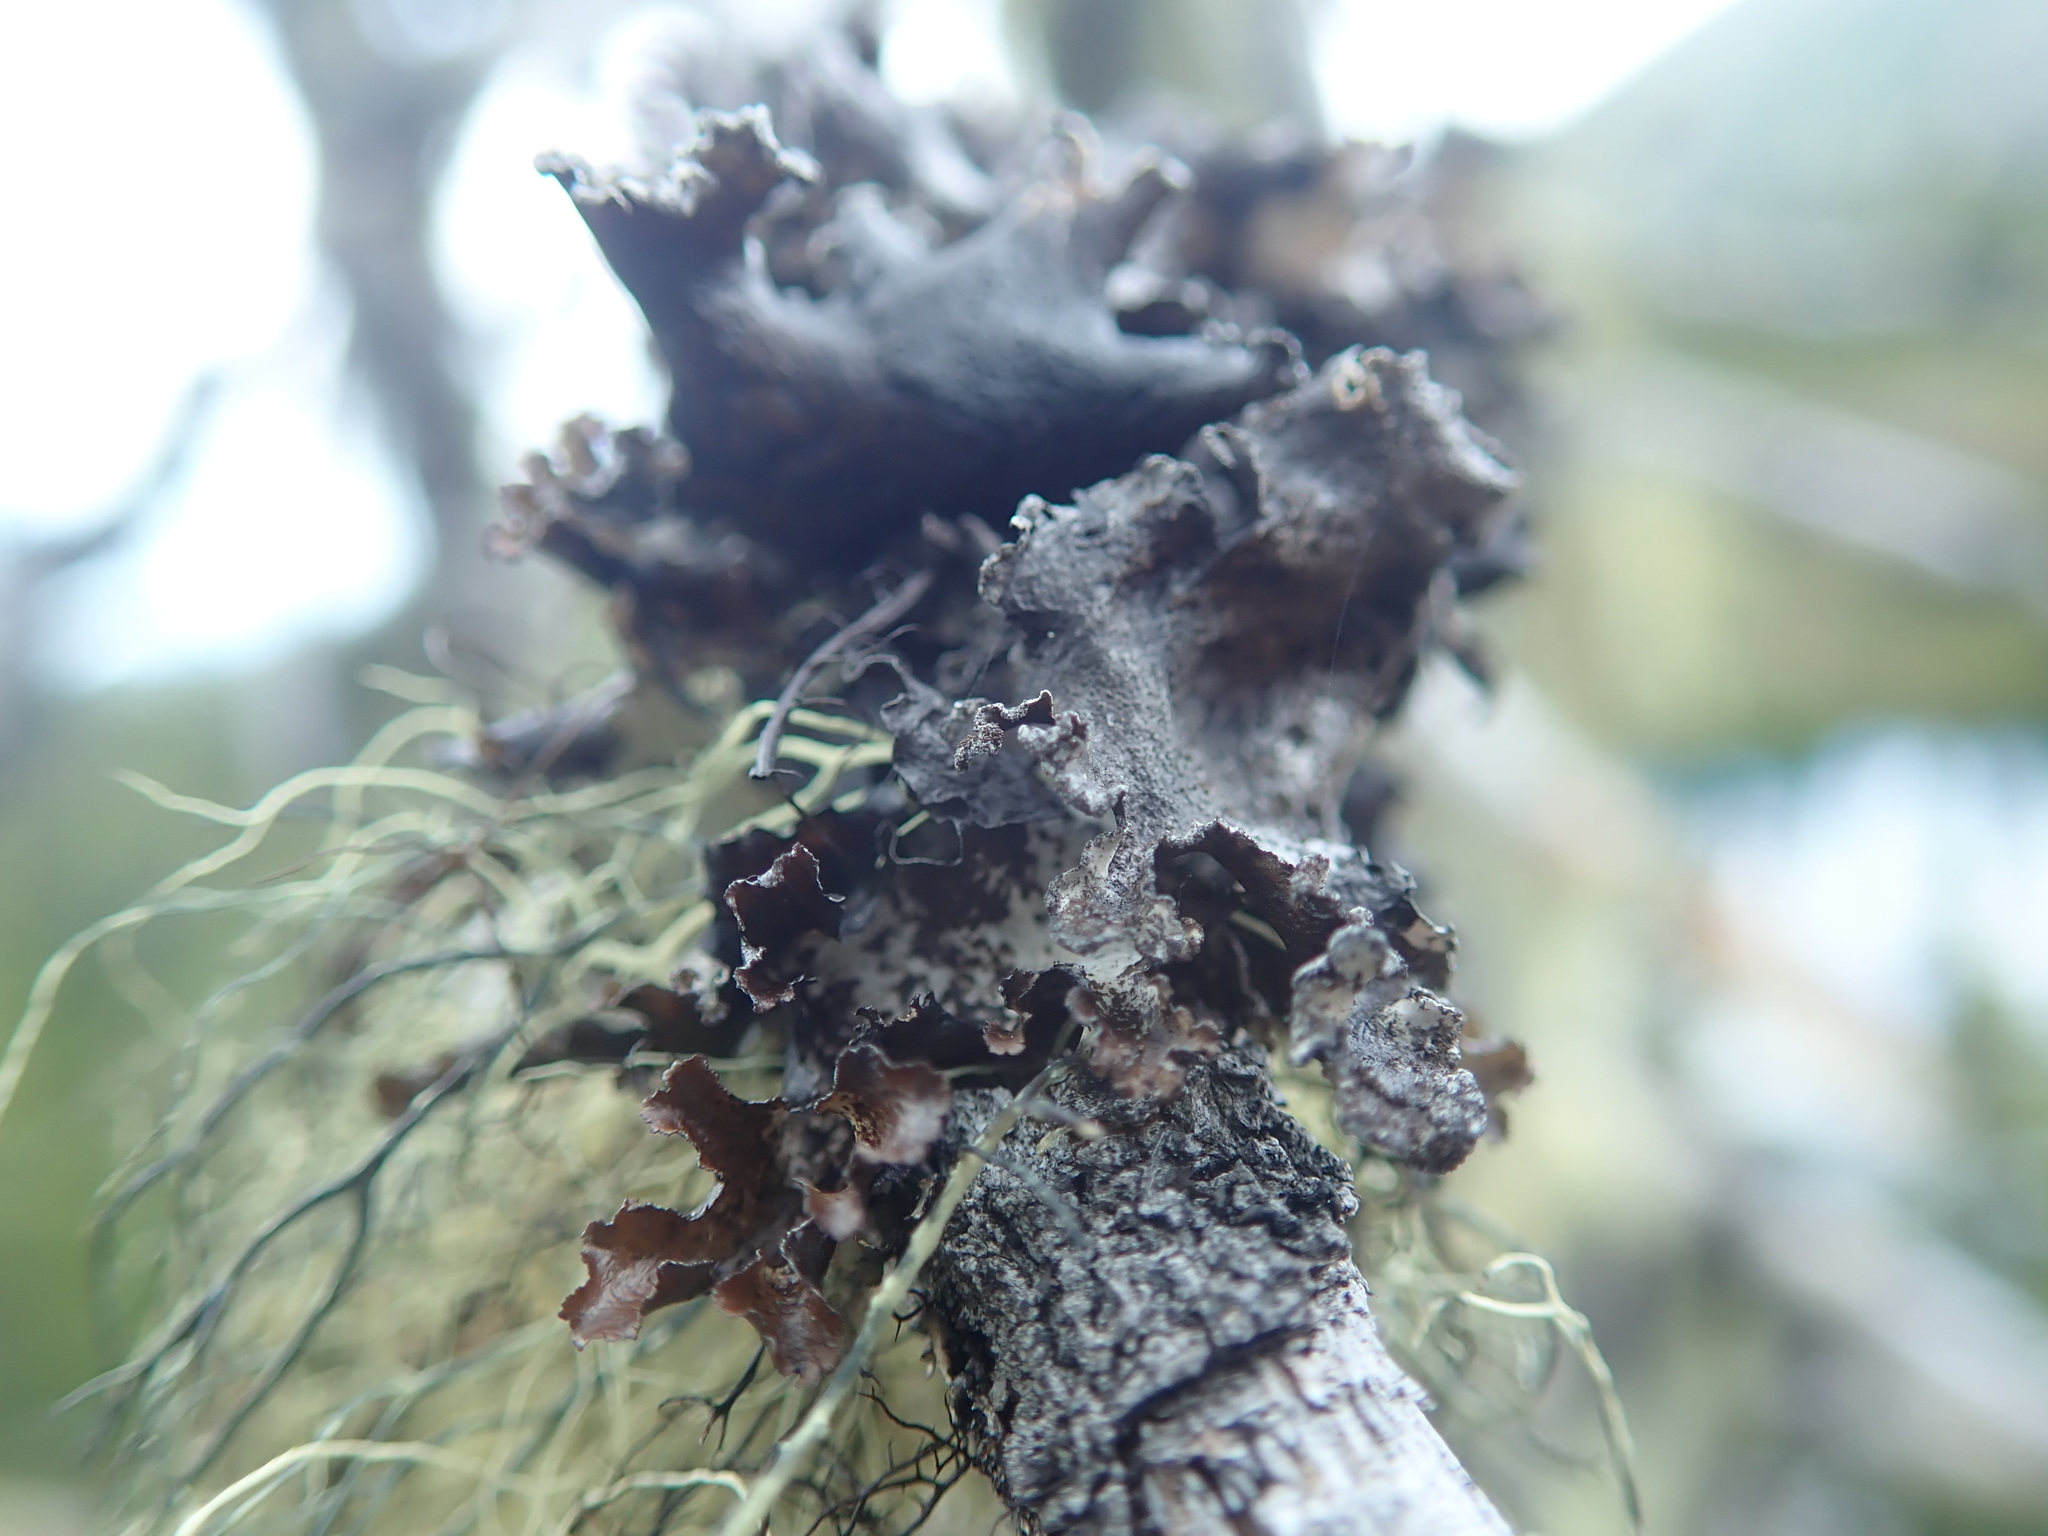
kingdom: Fungi
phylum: Ascomycota
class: Lecanoromycetes
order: Lecanorales
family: Parmeliaceae
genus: Platismatia
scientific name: Platismatia glauca
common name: Varied rag lichen
